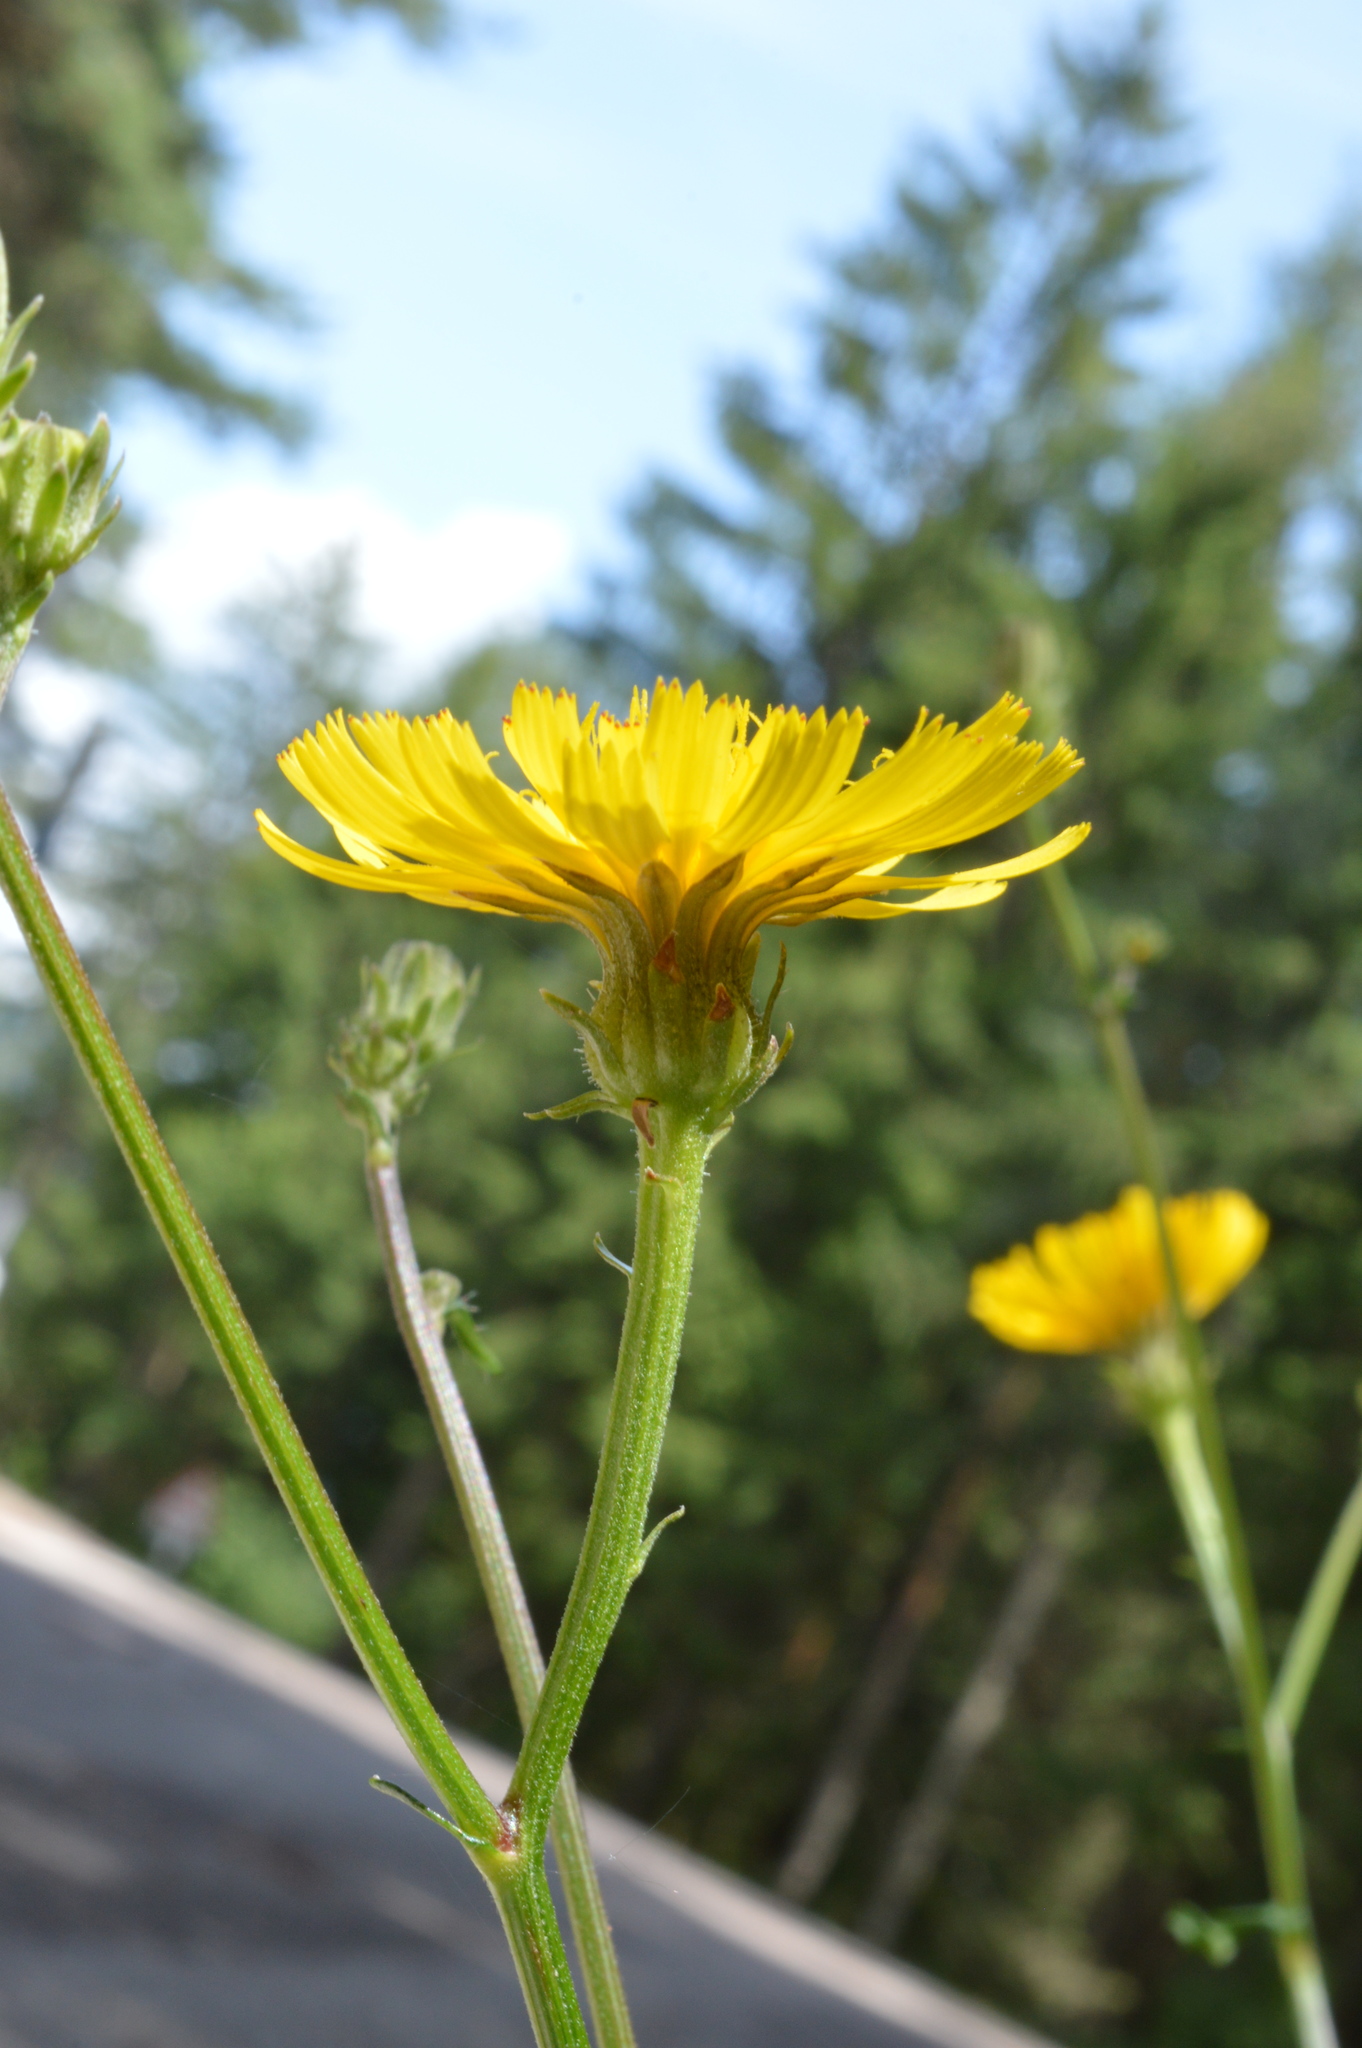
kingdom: Plantae
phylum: Tracheophyta
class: Magnoliopsida
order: Asterales
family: Asteraceae
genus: Picris
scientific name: Picris hieracioides
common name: Hawkweed oxtongue
